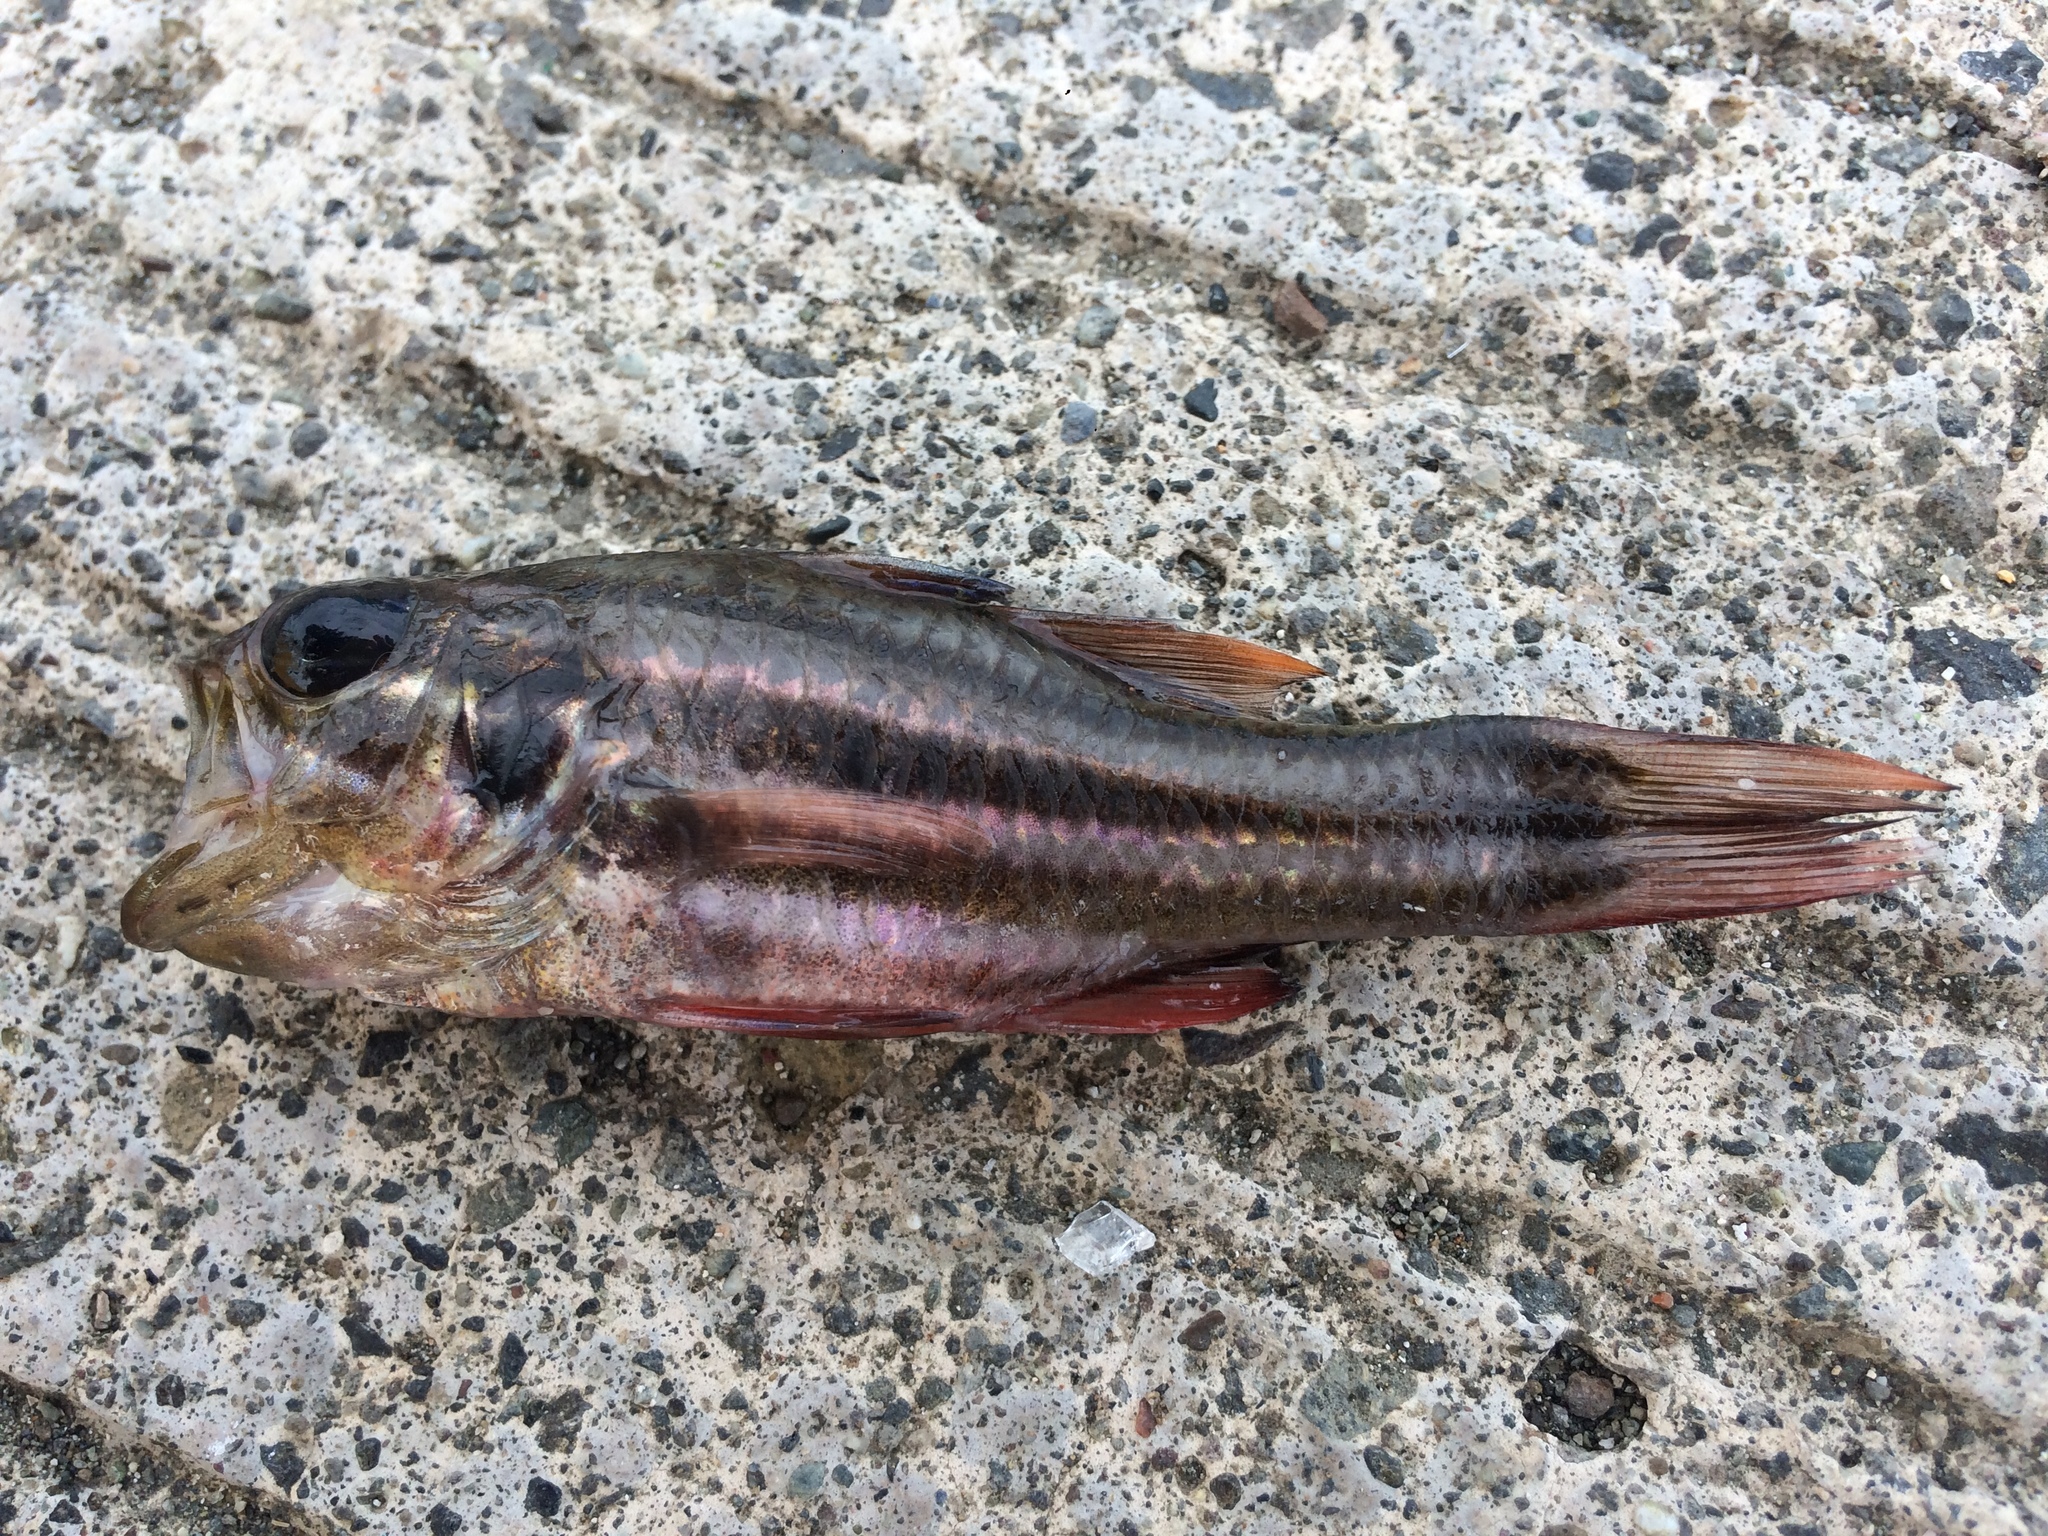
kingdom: Animalia
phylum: Chordata
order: Perciformes
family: Apogonidae
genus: Ostorhinchus
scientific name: Ostorhinchus taeniophorus
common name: Reef-flat cardinalfish
